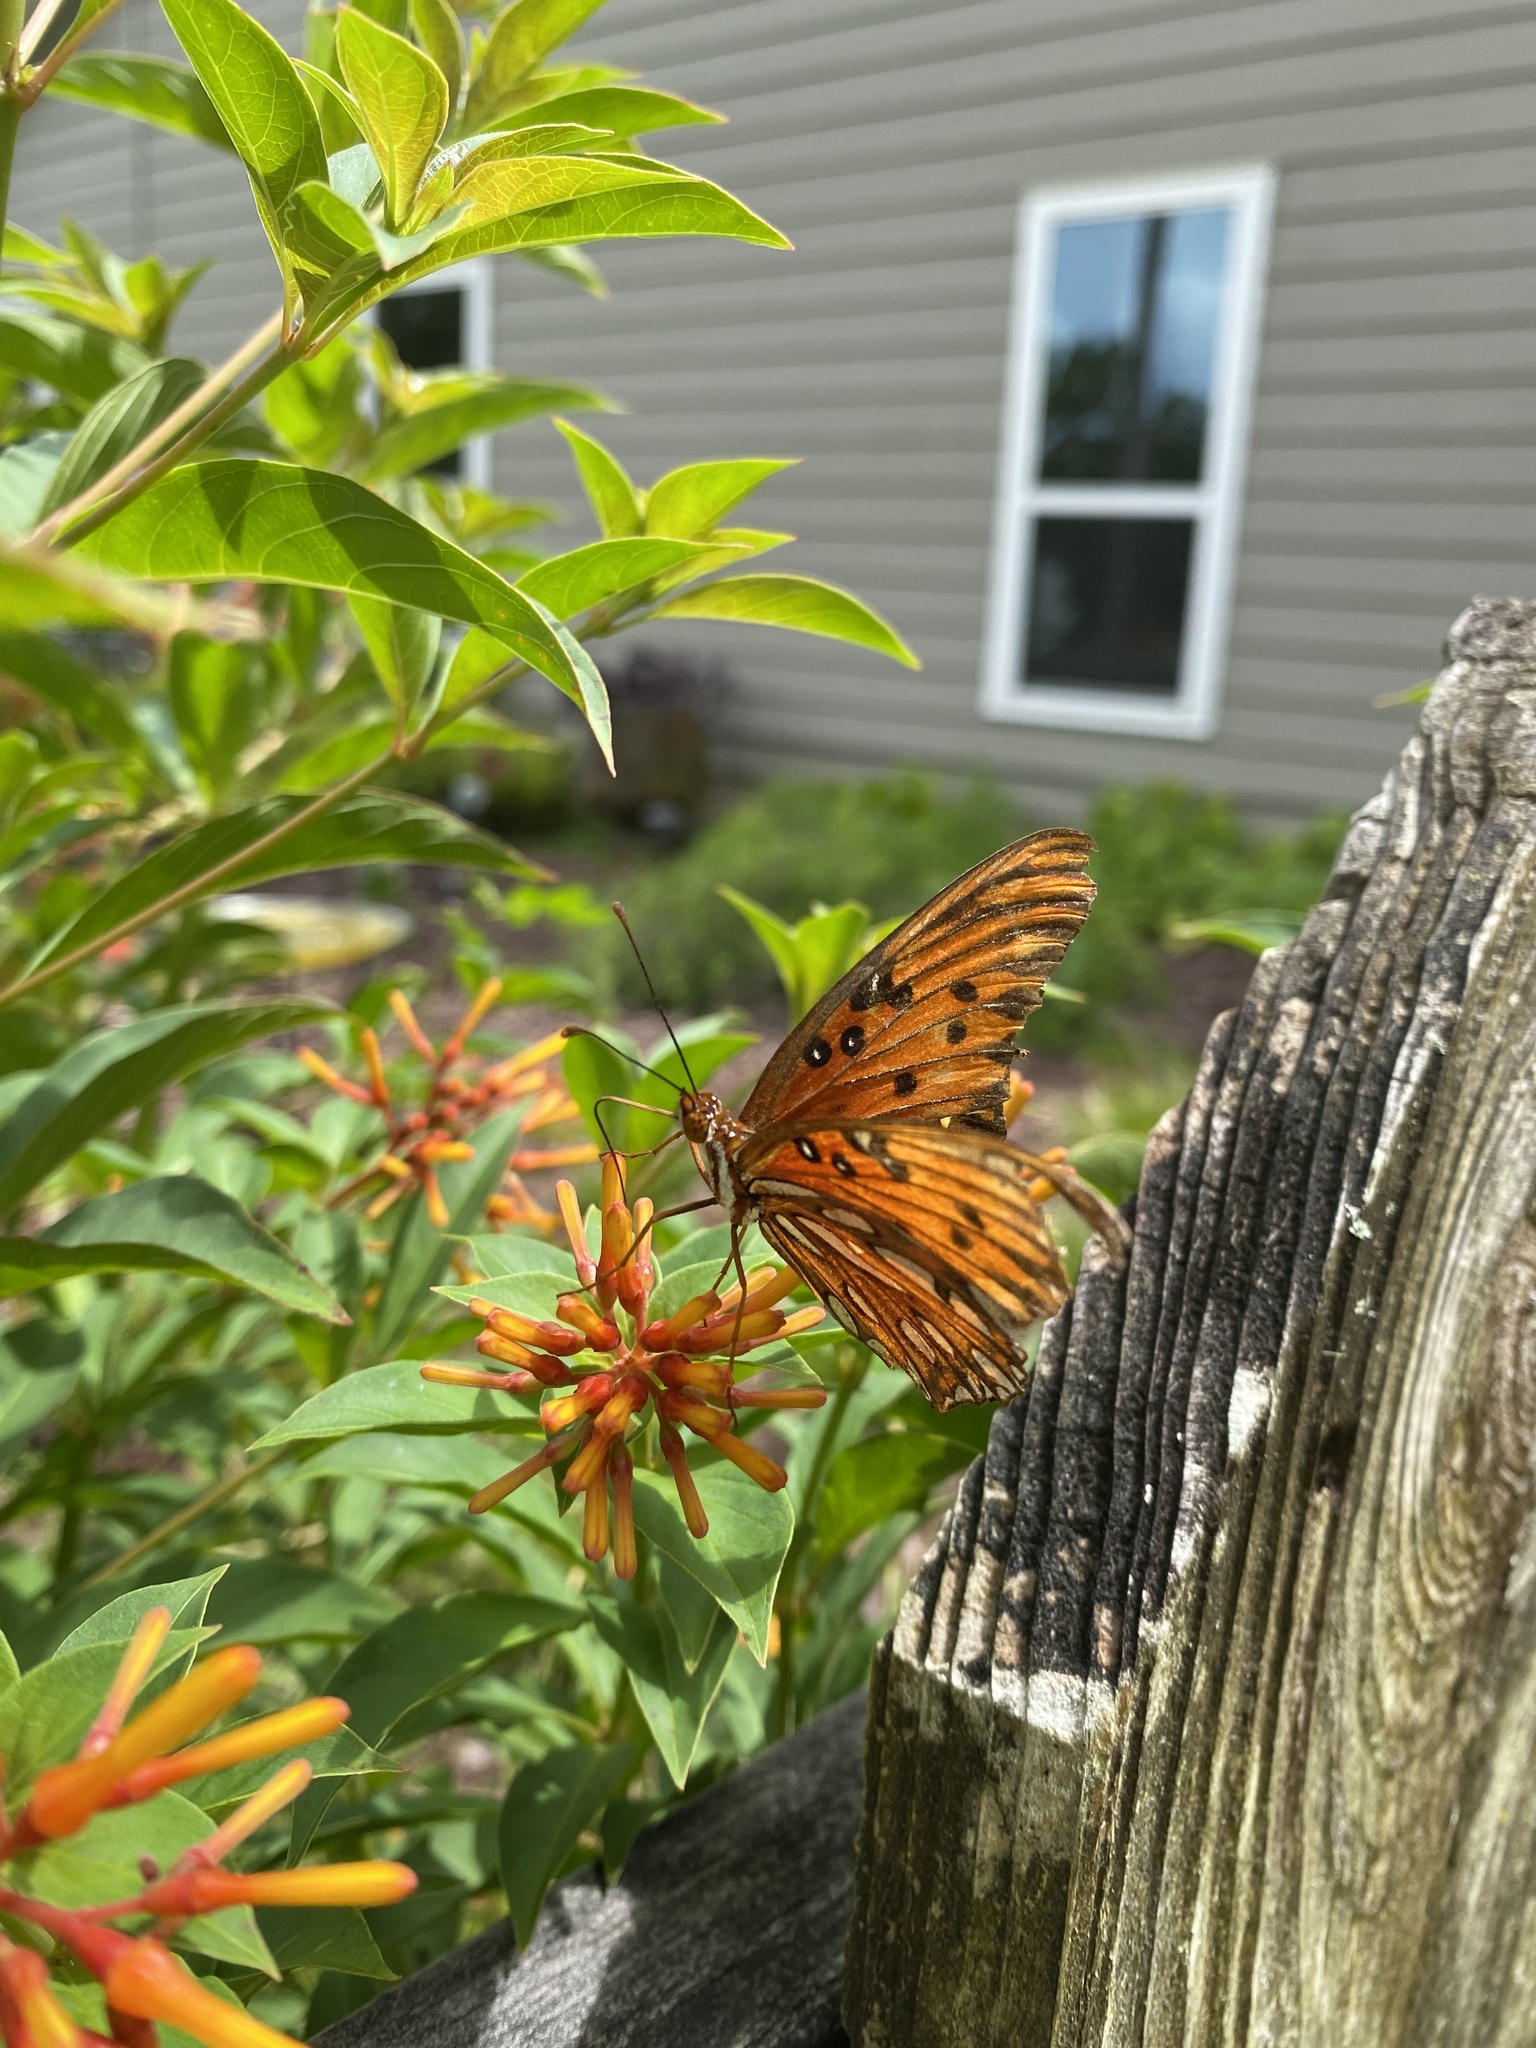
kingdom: Animalia
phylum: Arthropoda
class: Insecta
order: Lepidoptera
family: Nymphalidae
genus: Dione
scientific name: Dione vanillae
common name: Gulf fritillary
